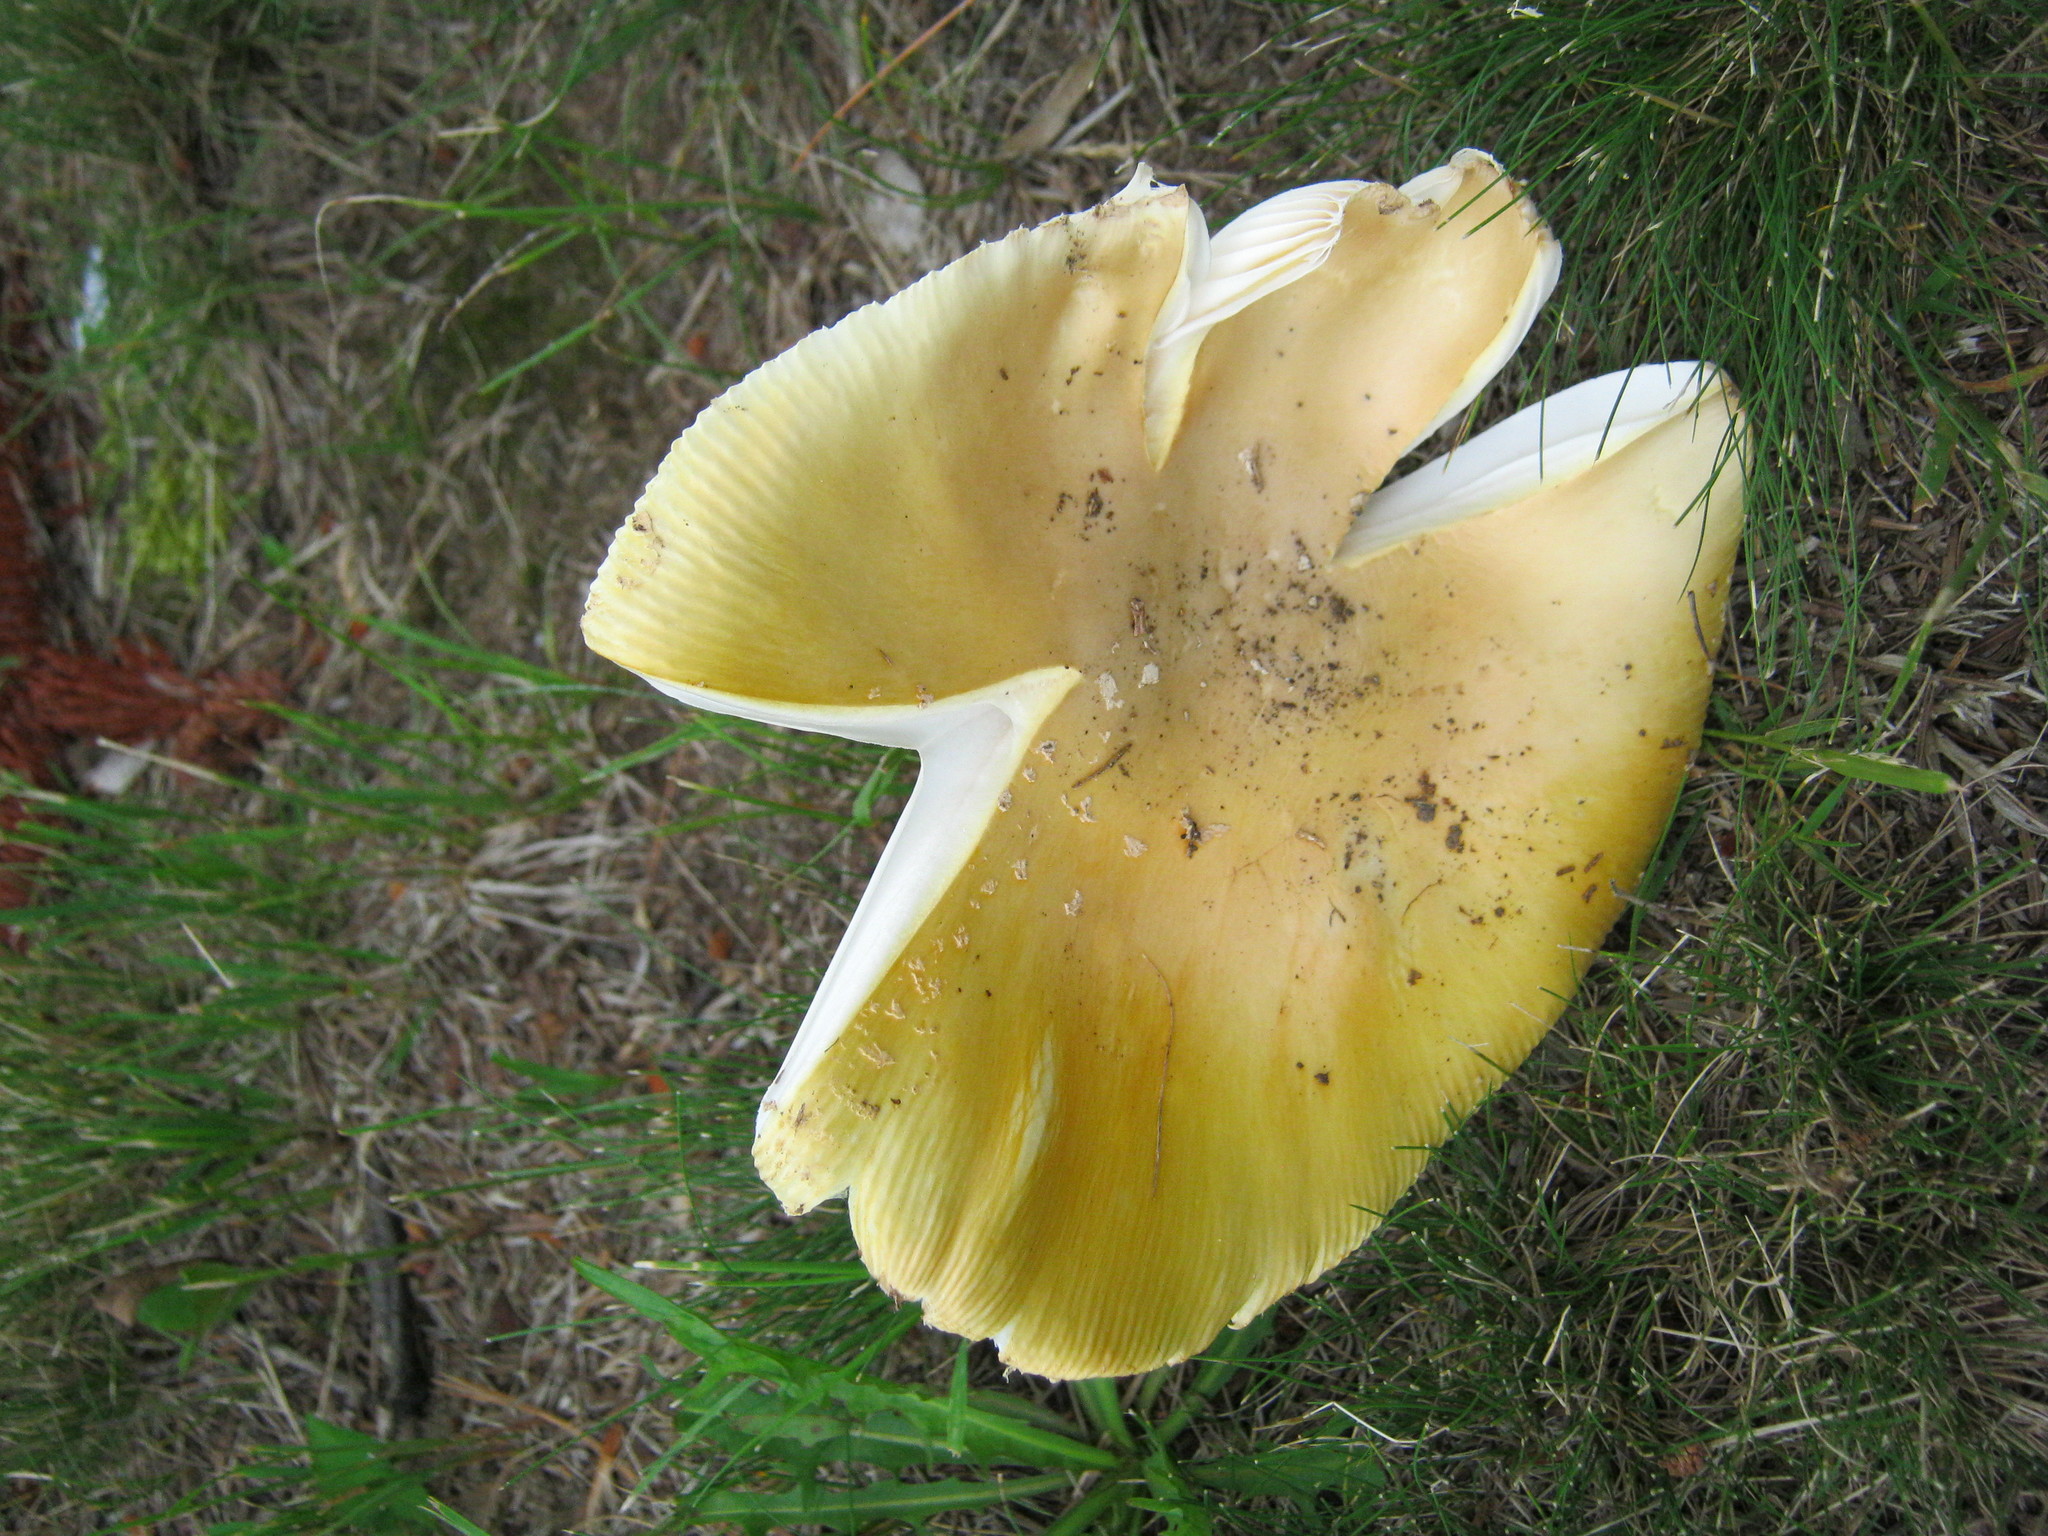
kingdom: Fungi
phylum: Basidiomycota
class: Agaricomycetes
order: Agaricales
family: Amanitaceae
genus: Amanita
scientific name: Amanita muscaria
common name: Fly agaric
